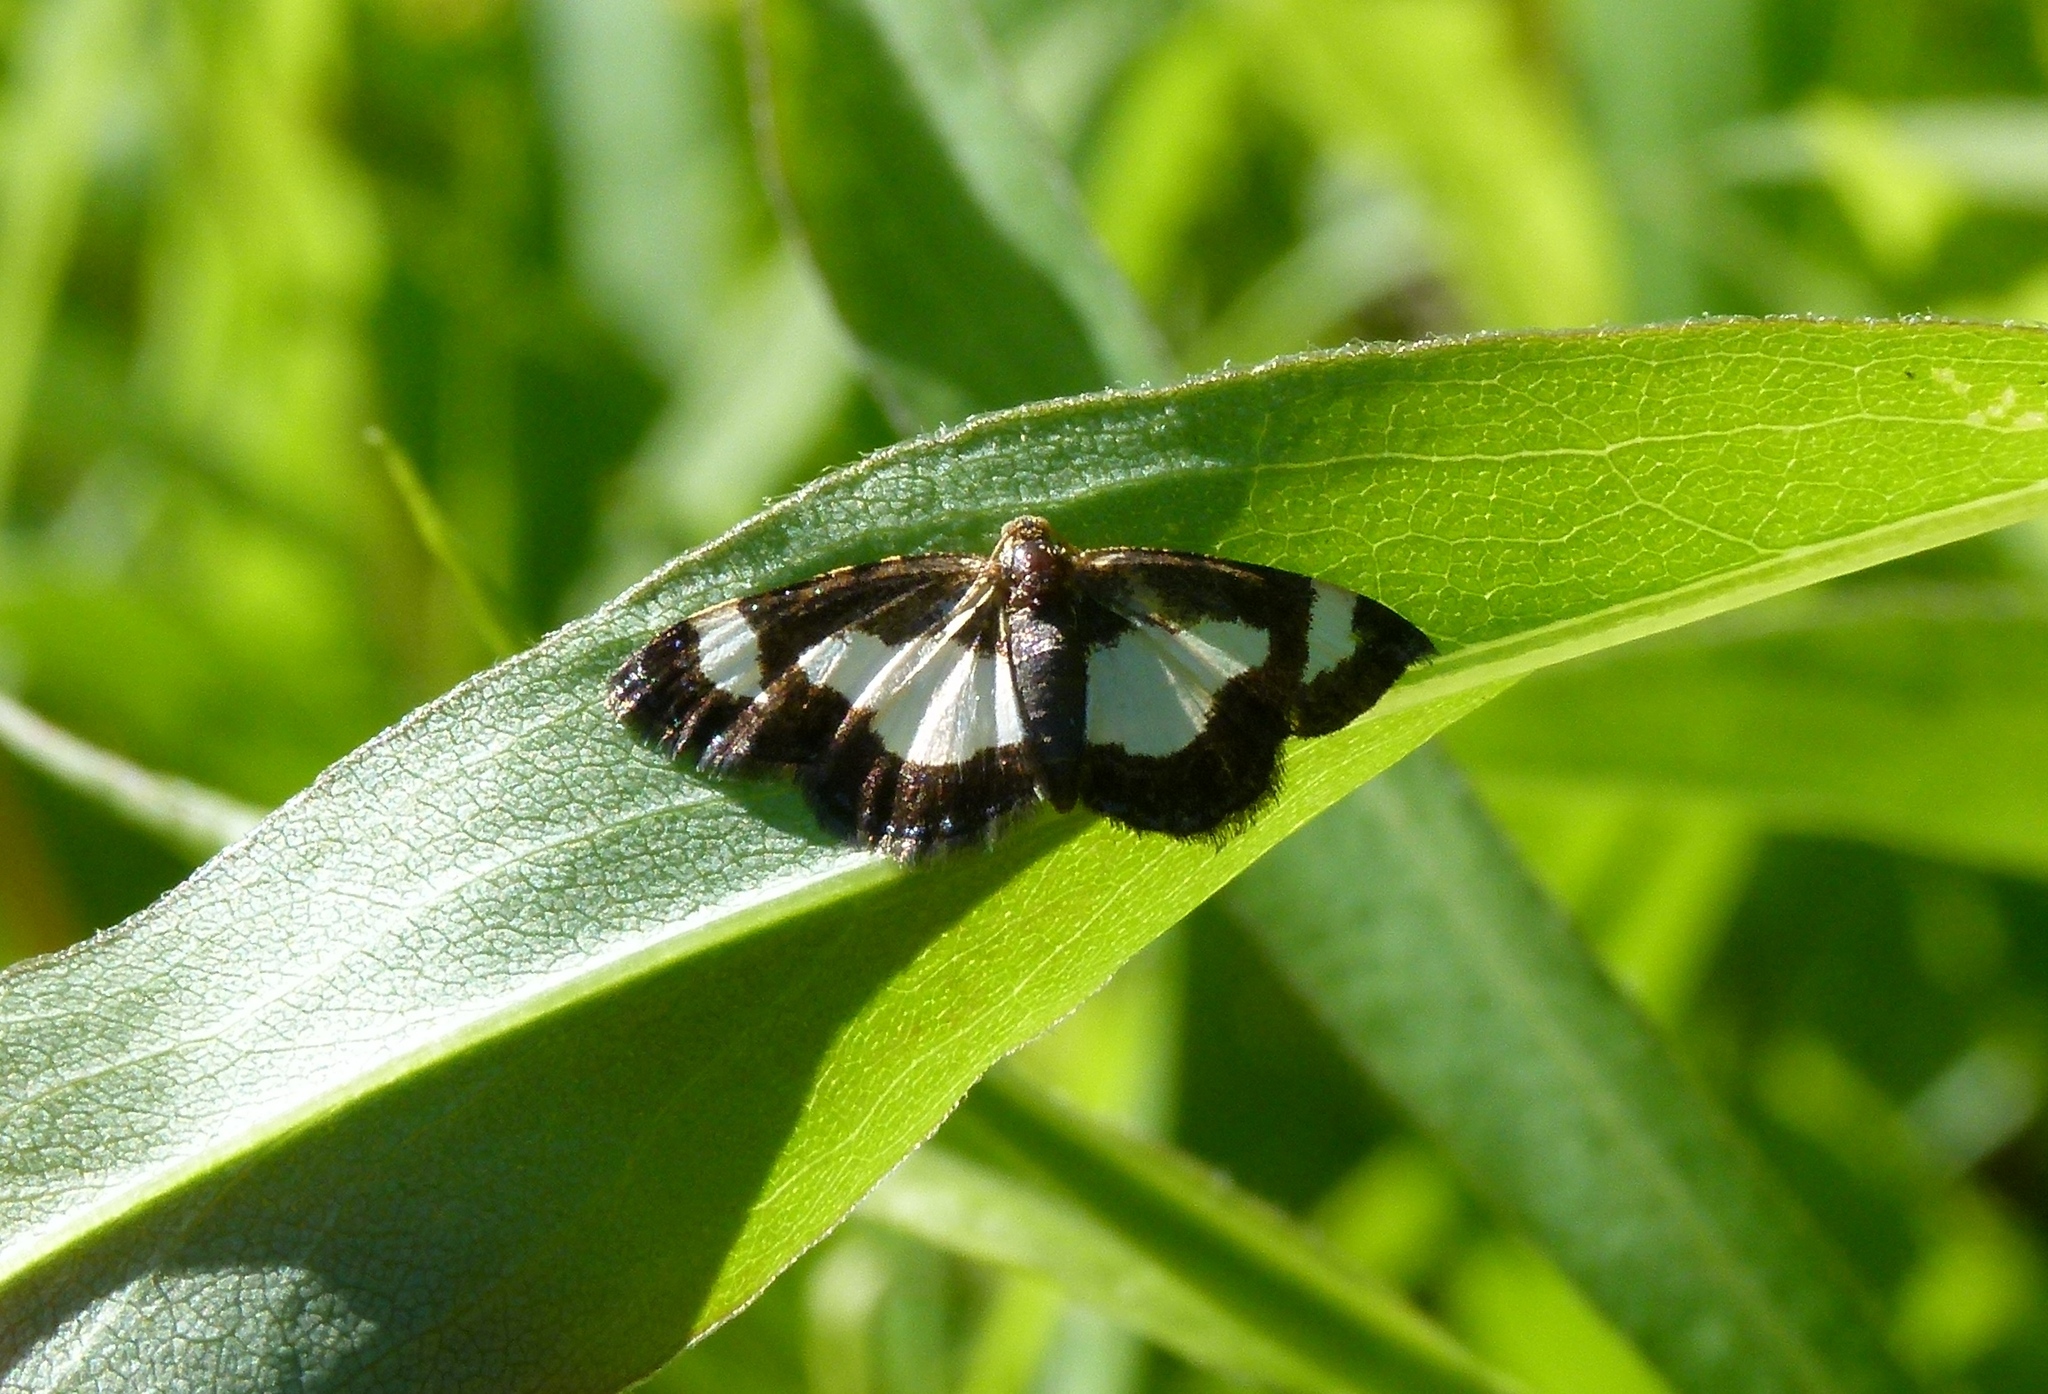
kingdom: Animalia
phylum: Arthropoda
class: Insecta
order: Lepidoptera
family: Geometridae
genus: Heliomata
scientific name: Heliomata cycladata
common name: Common spring moth
